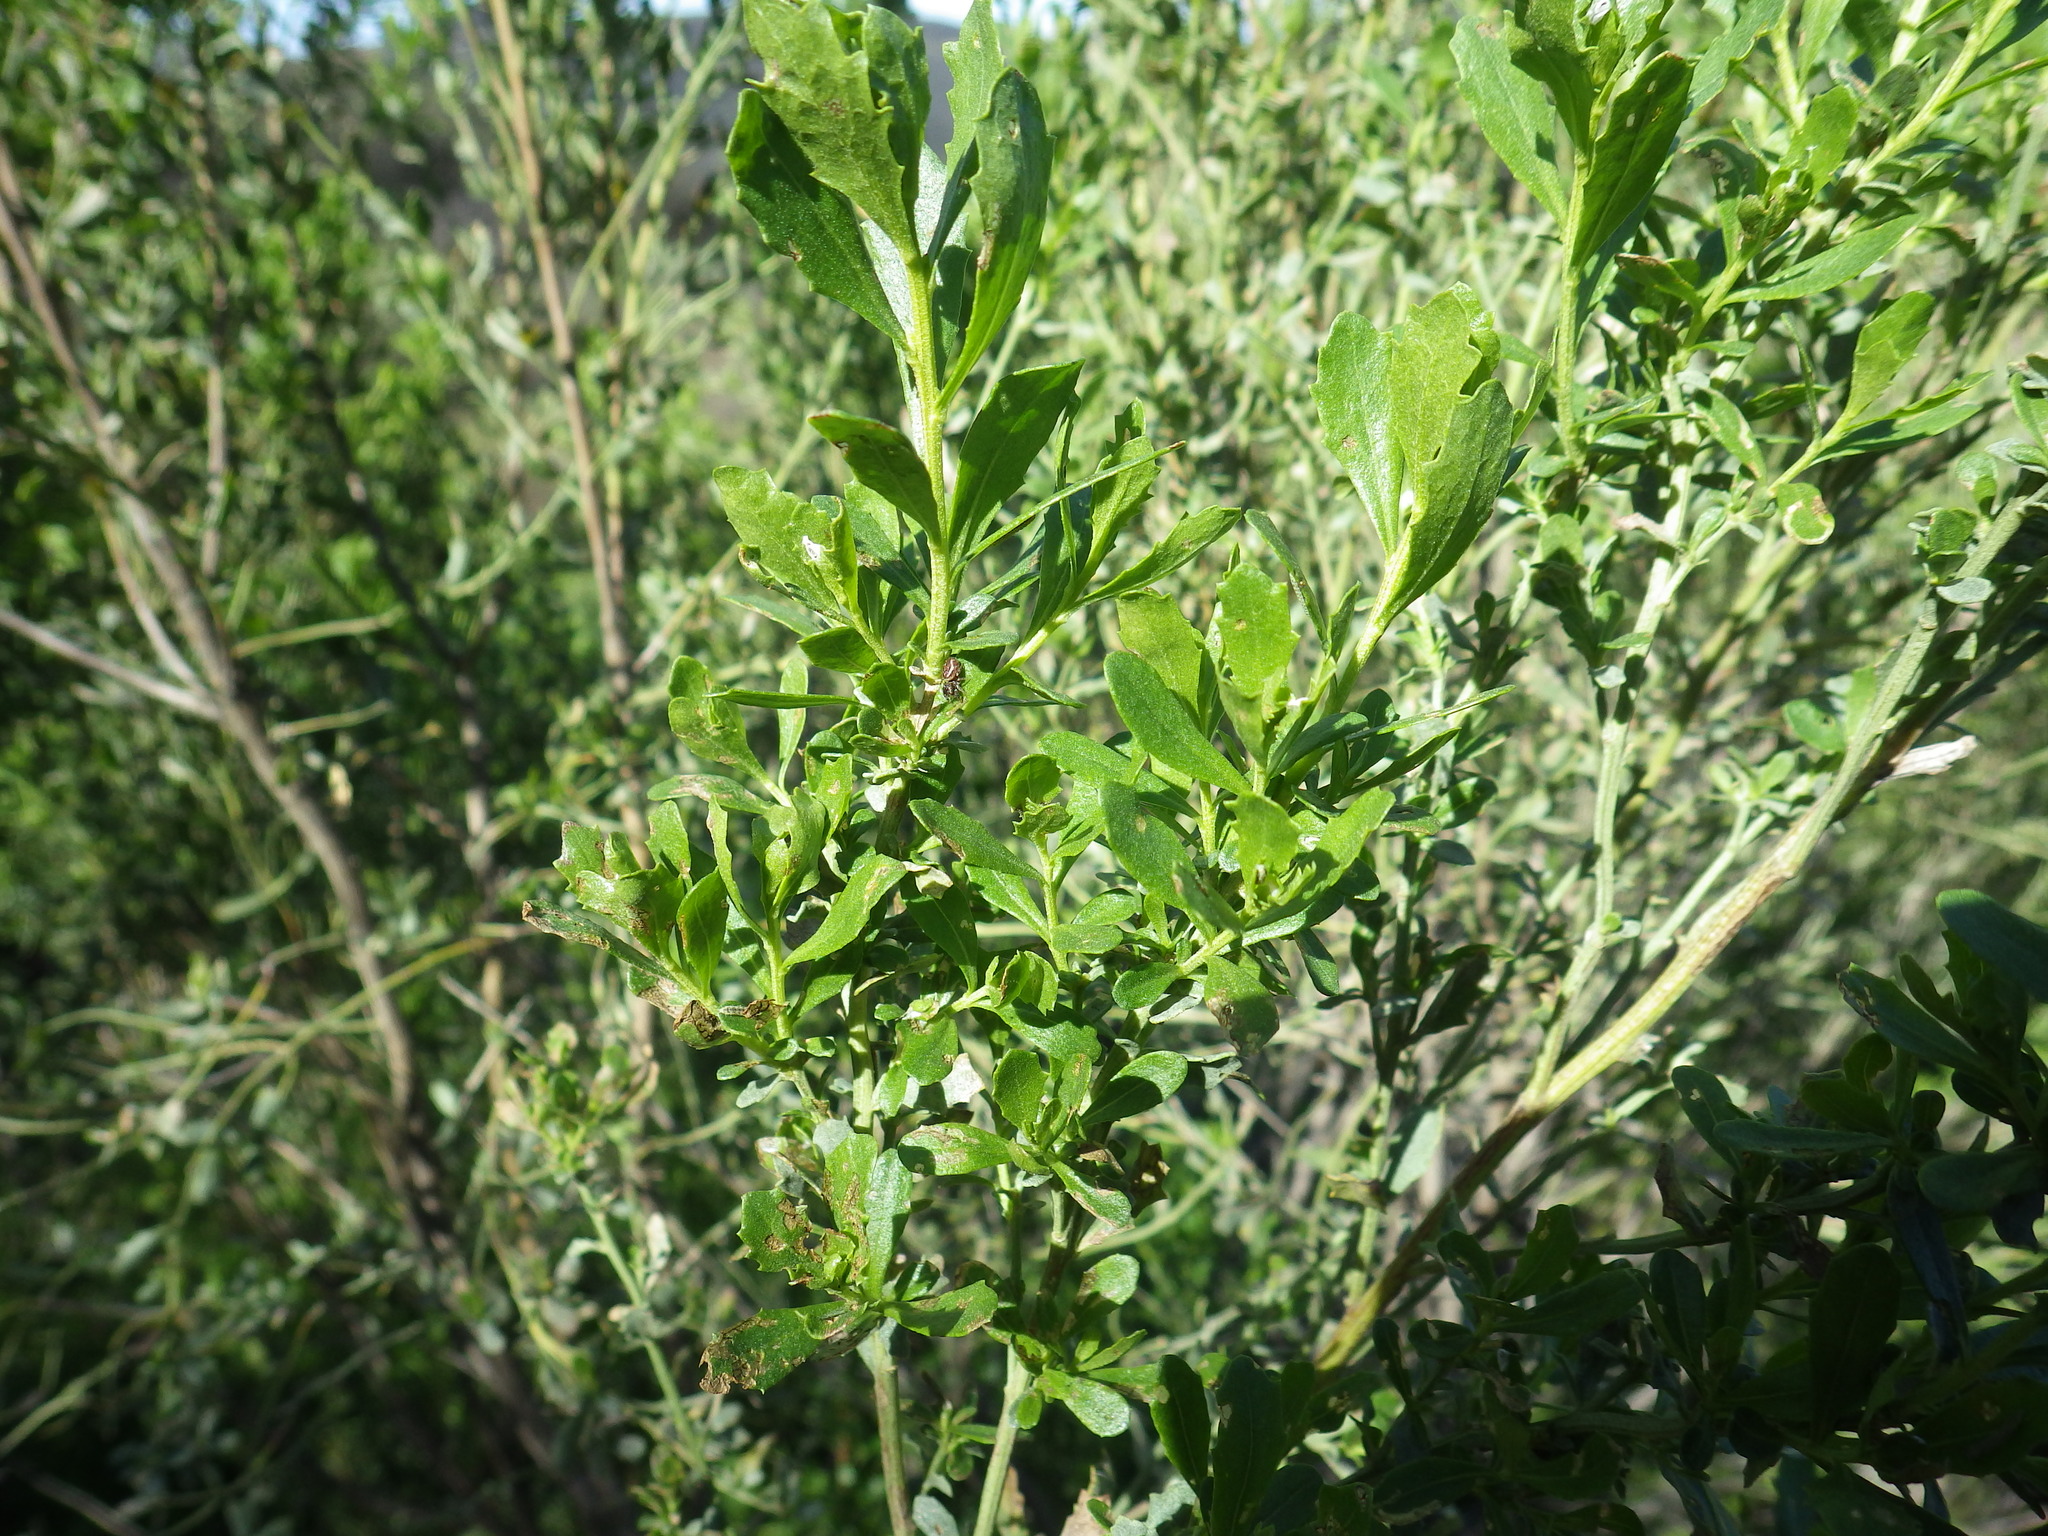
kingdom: Plantae
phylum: Tracheophyta
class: Magnoliopsida
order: Asterales
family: Asteraceae
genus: Baccharis
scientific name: Baccharis pilularis
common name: Coyotebrush
